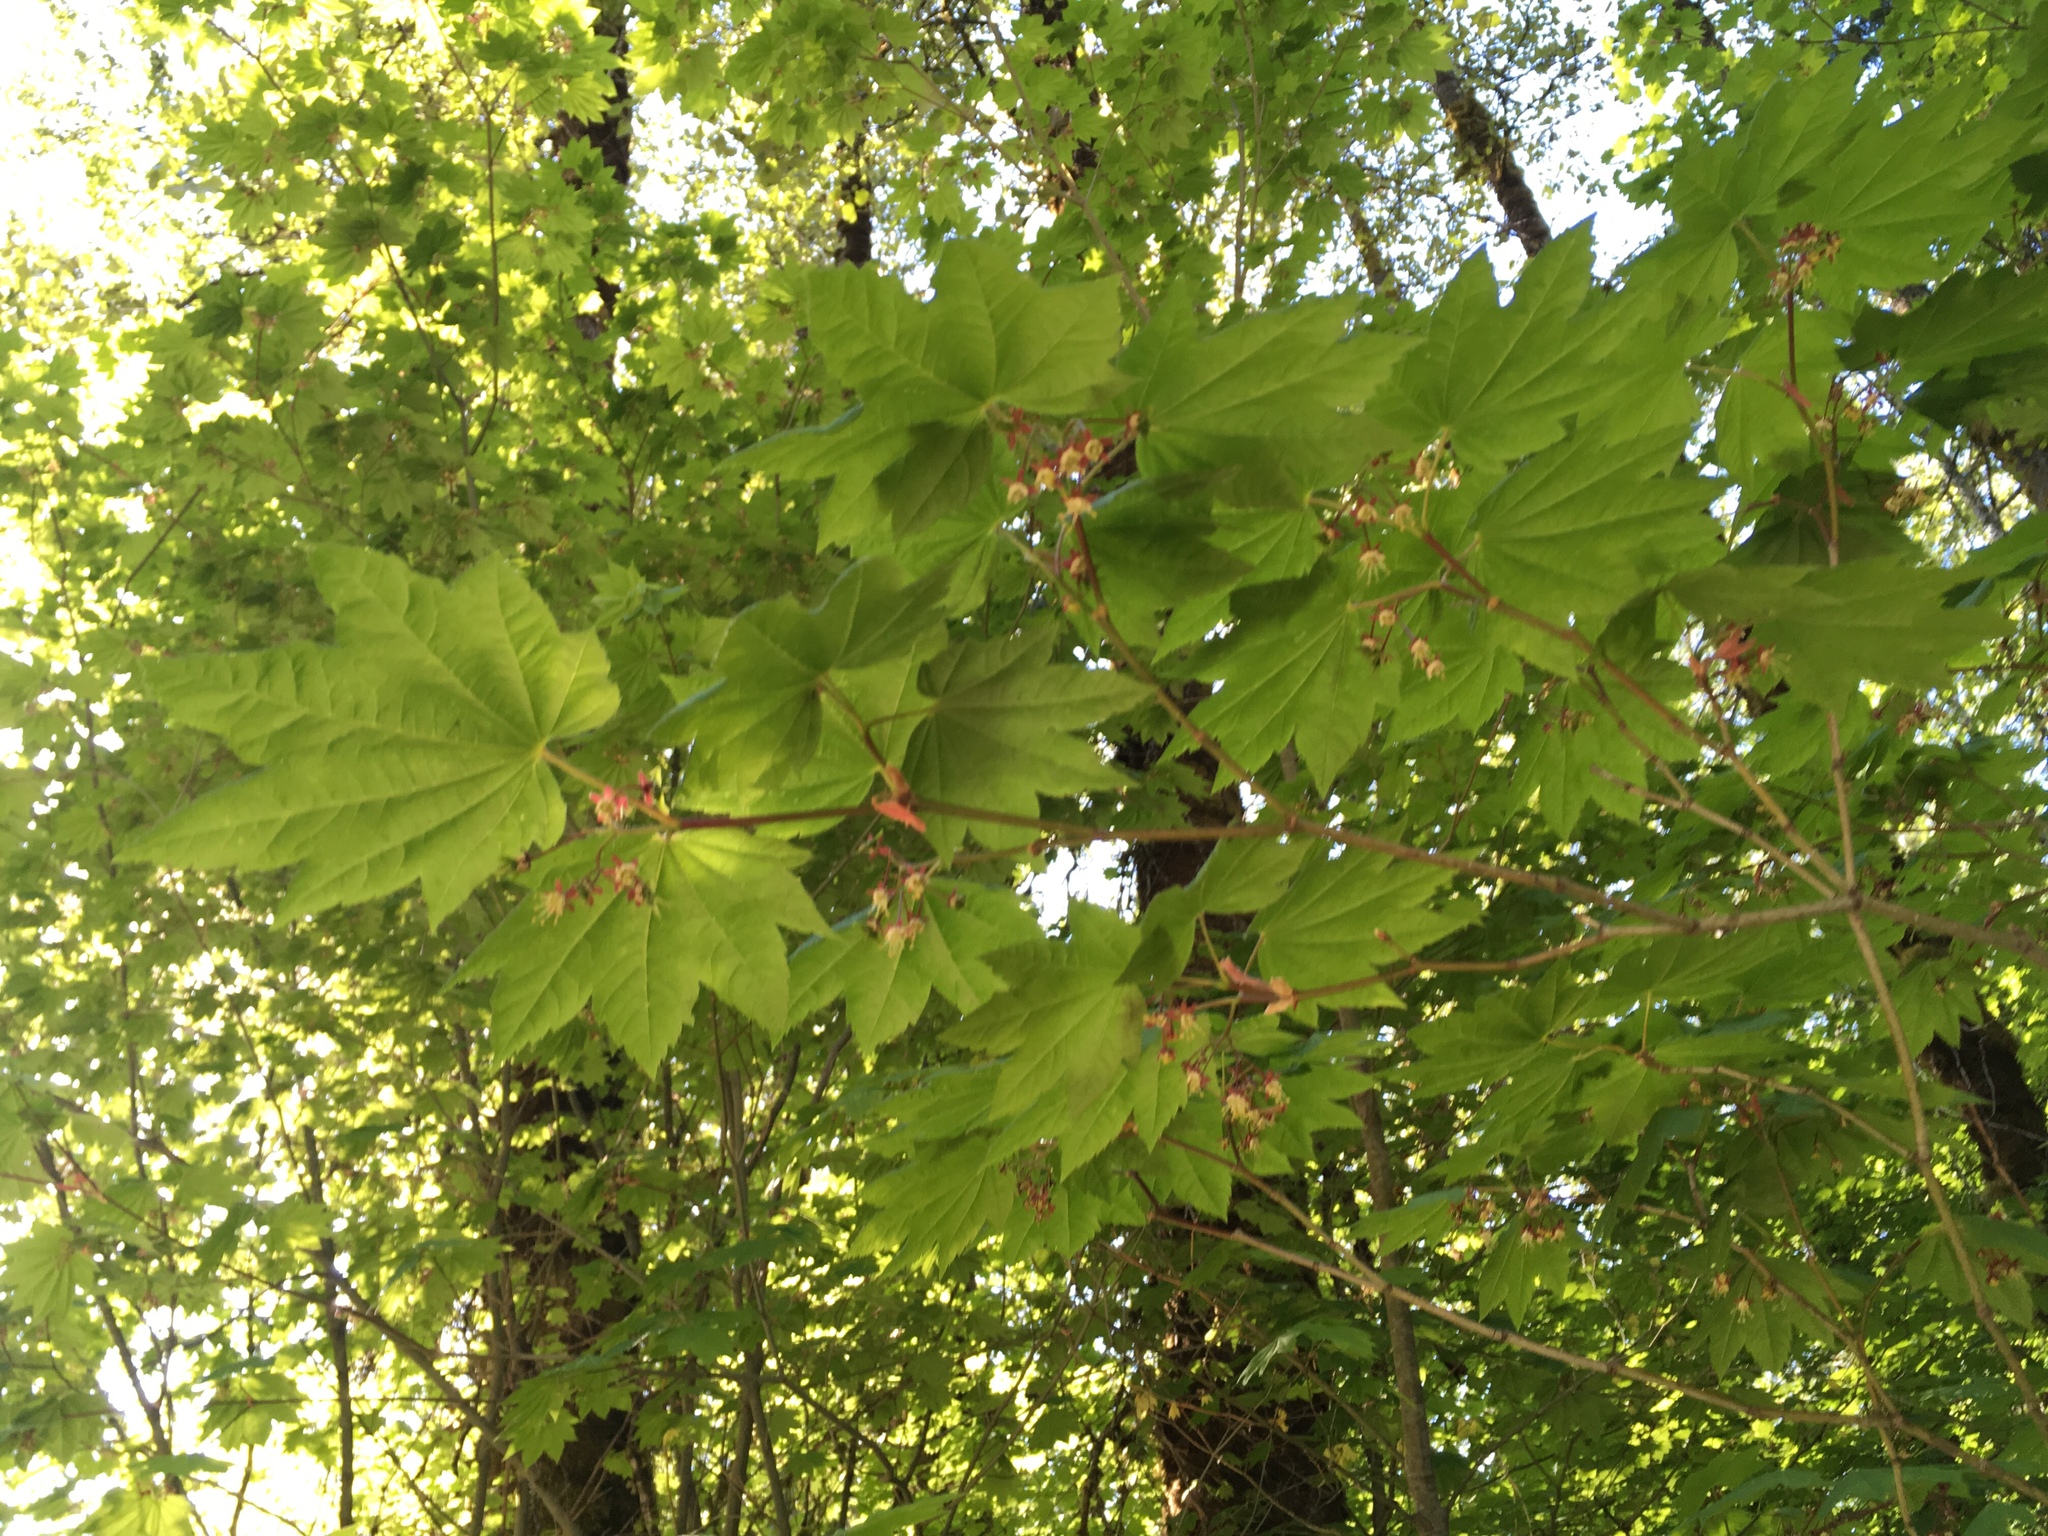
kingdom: Plantae
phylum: Tracheophyta
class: Magnoliopsida
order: Sapindales
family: Sapindaceae
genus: Acer
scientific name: Acer circinatum
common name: Vine maple
